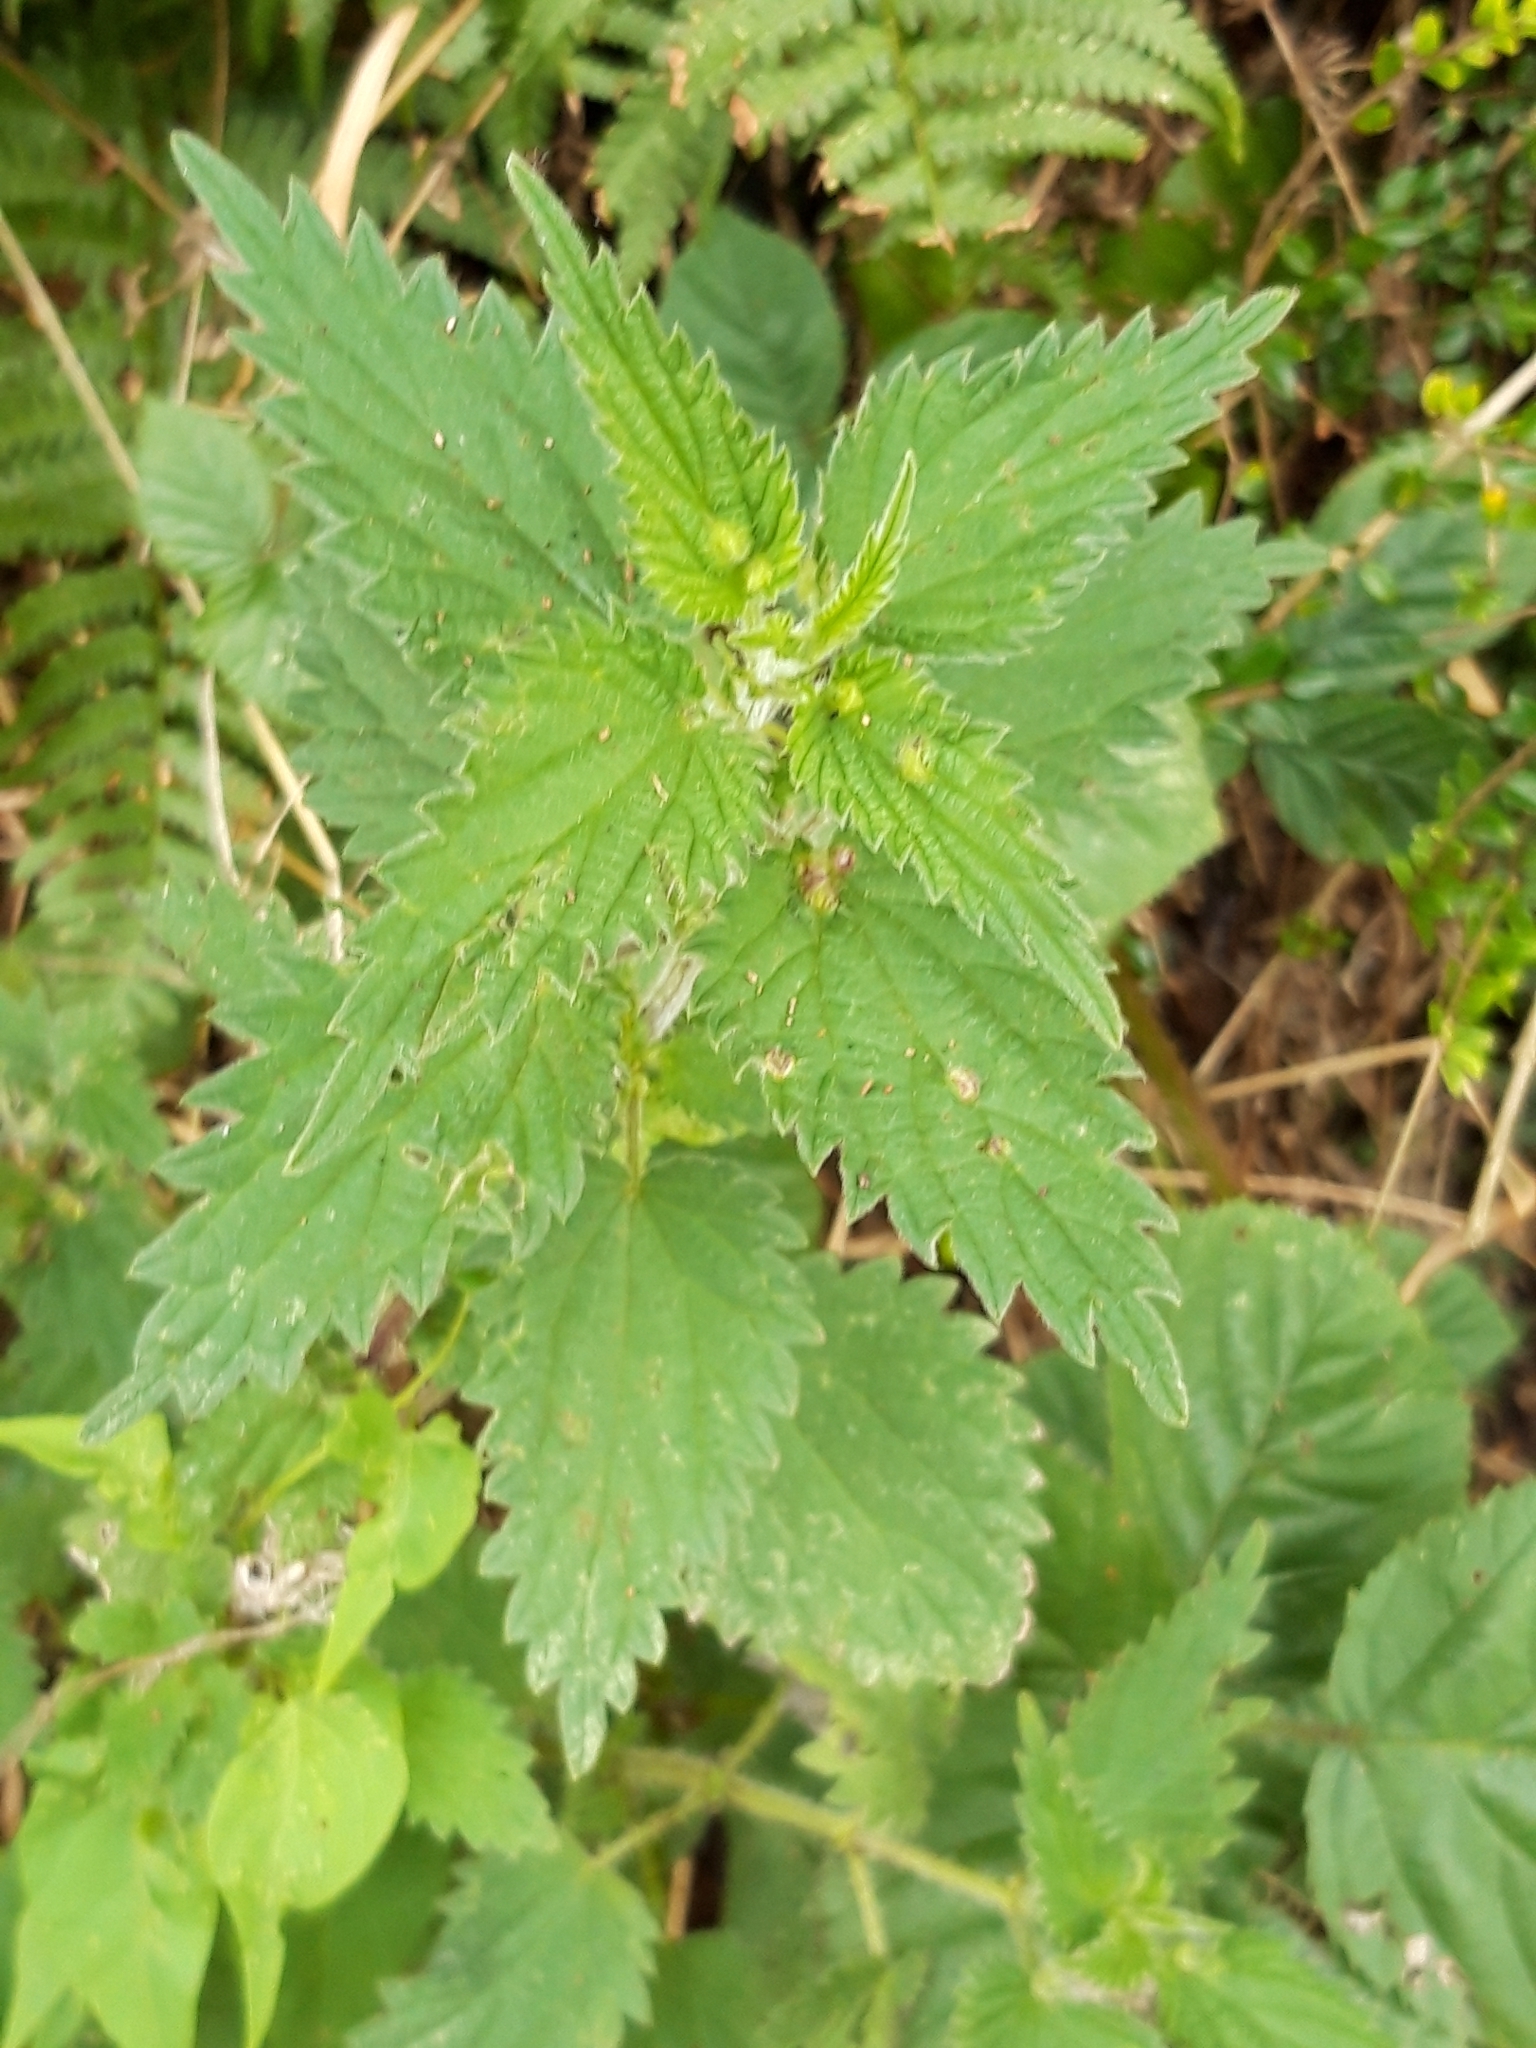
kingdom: Plantae
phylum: Tracheophyta
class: Magnoliopsida
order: Rosales
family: Urticaceae
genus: Urtica
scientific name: Urtica dioica
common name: Common nettle
